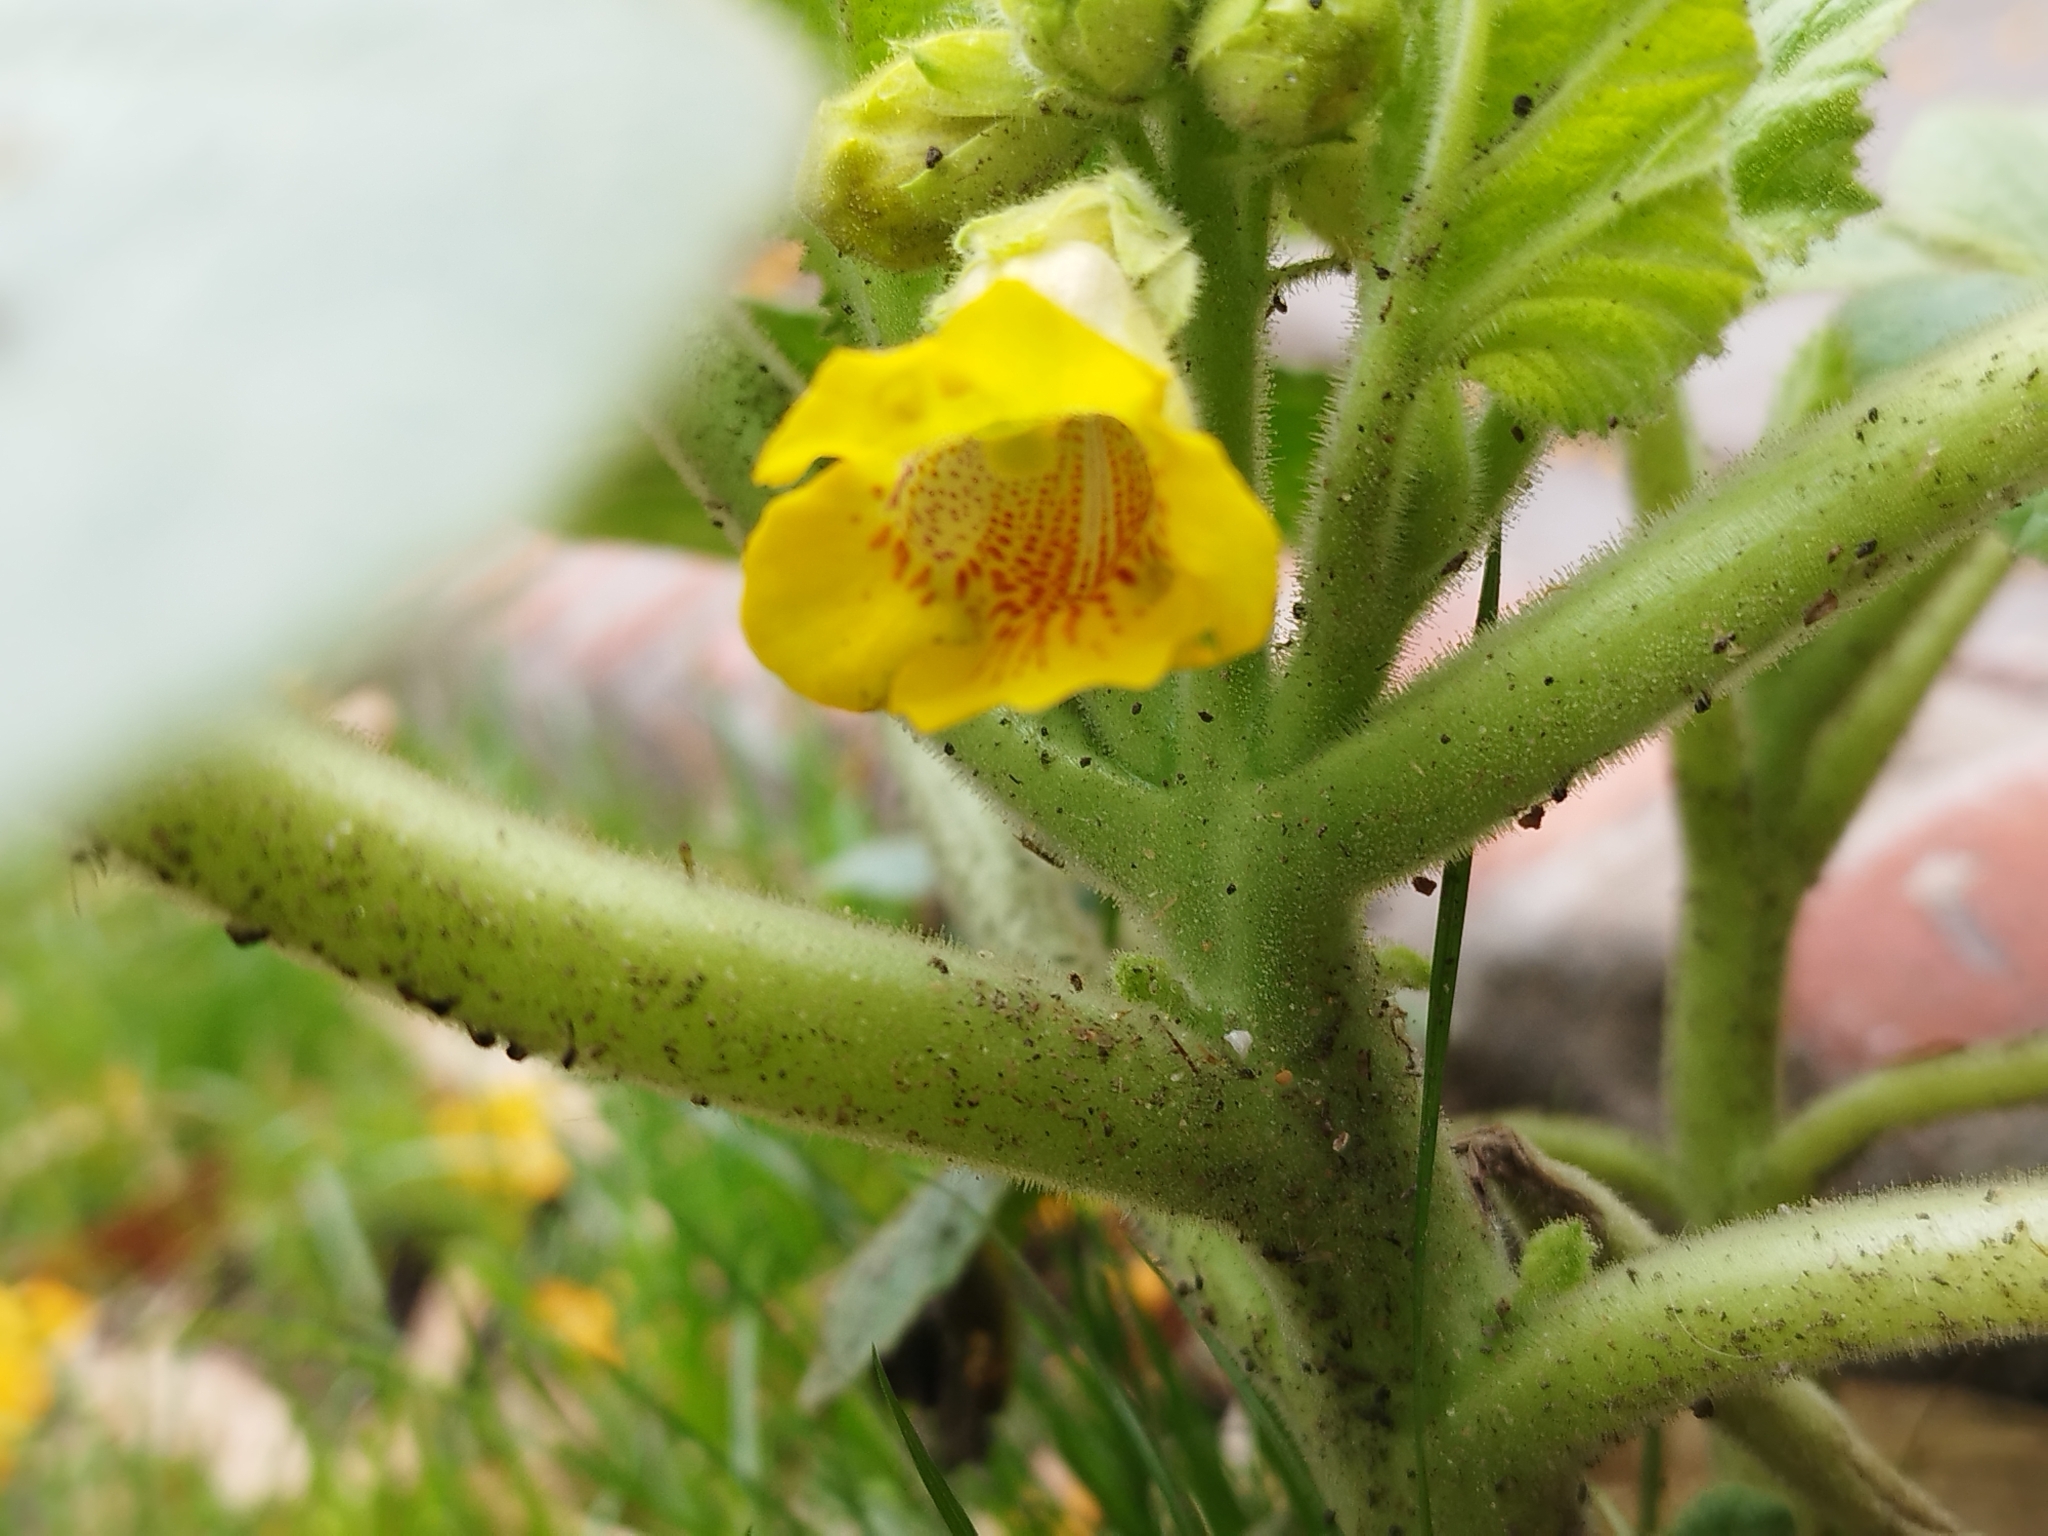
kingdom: Plantae
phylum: Tracheophyta
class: Magnoliopsida
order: Lamiales
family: Martyniaceae
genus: Ibicella
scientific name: Ibicella lutea
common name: Yellow unicorn-plant
